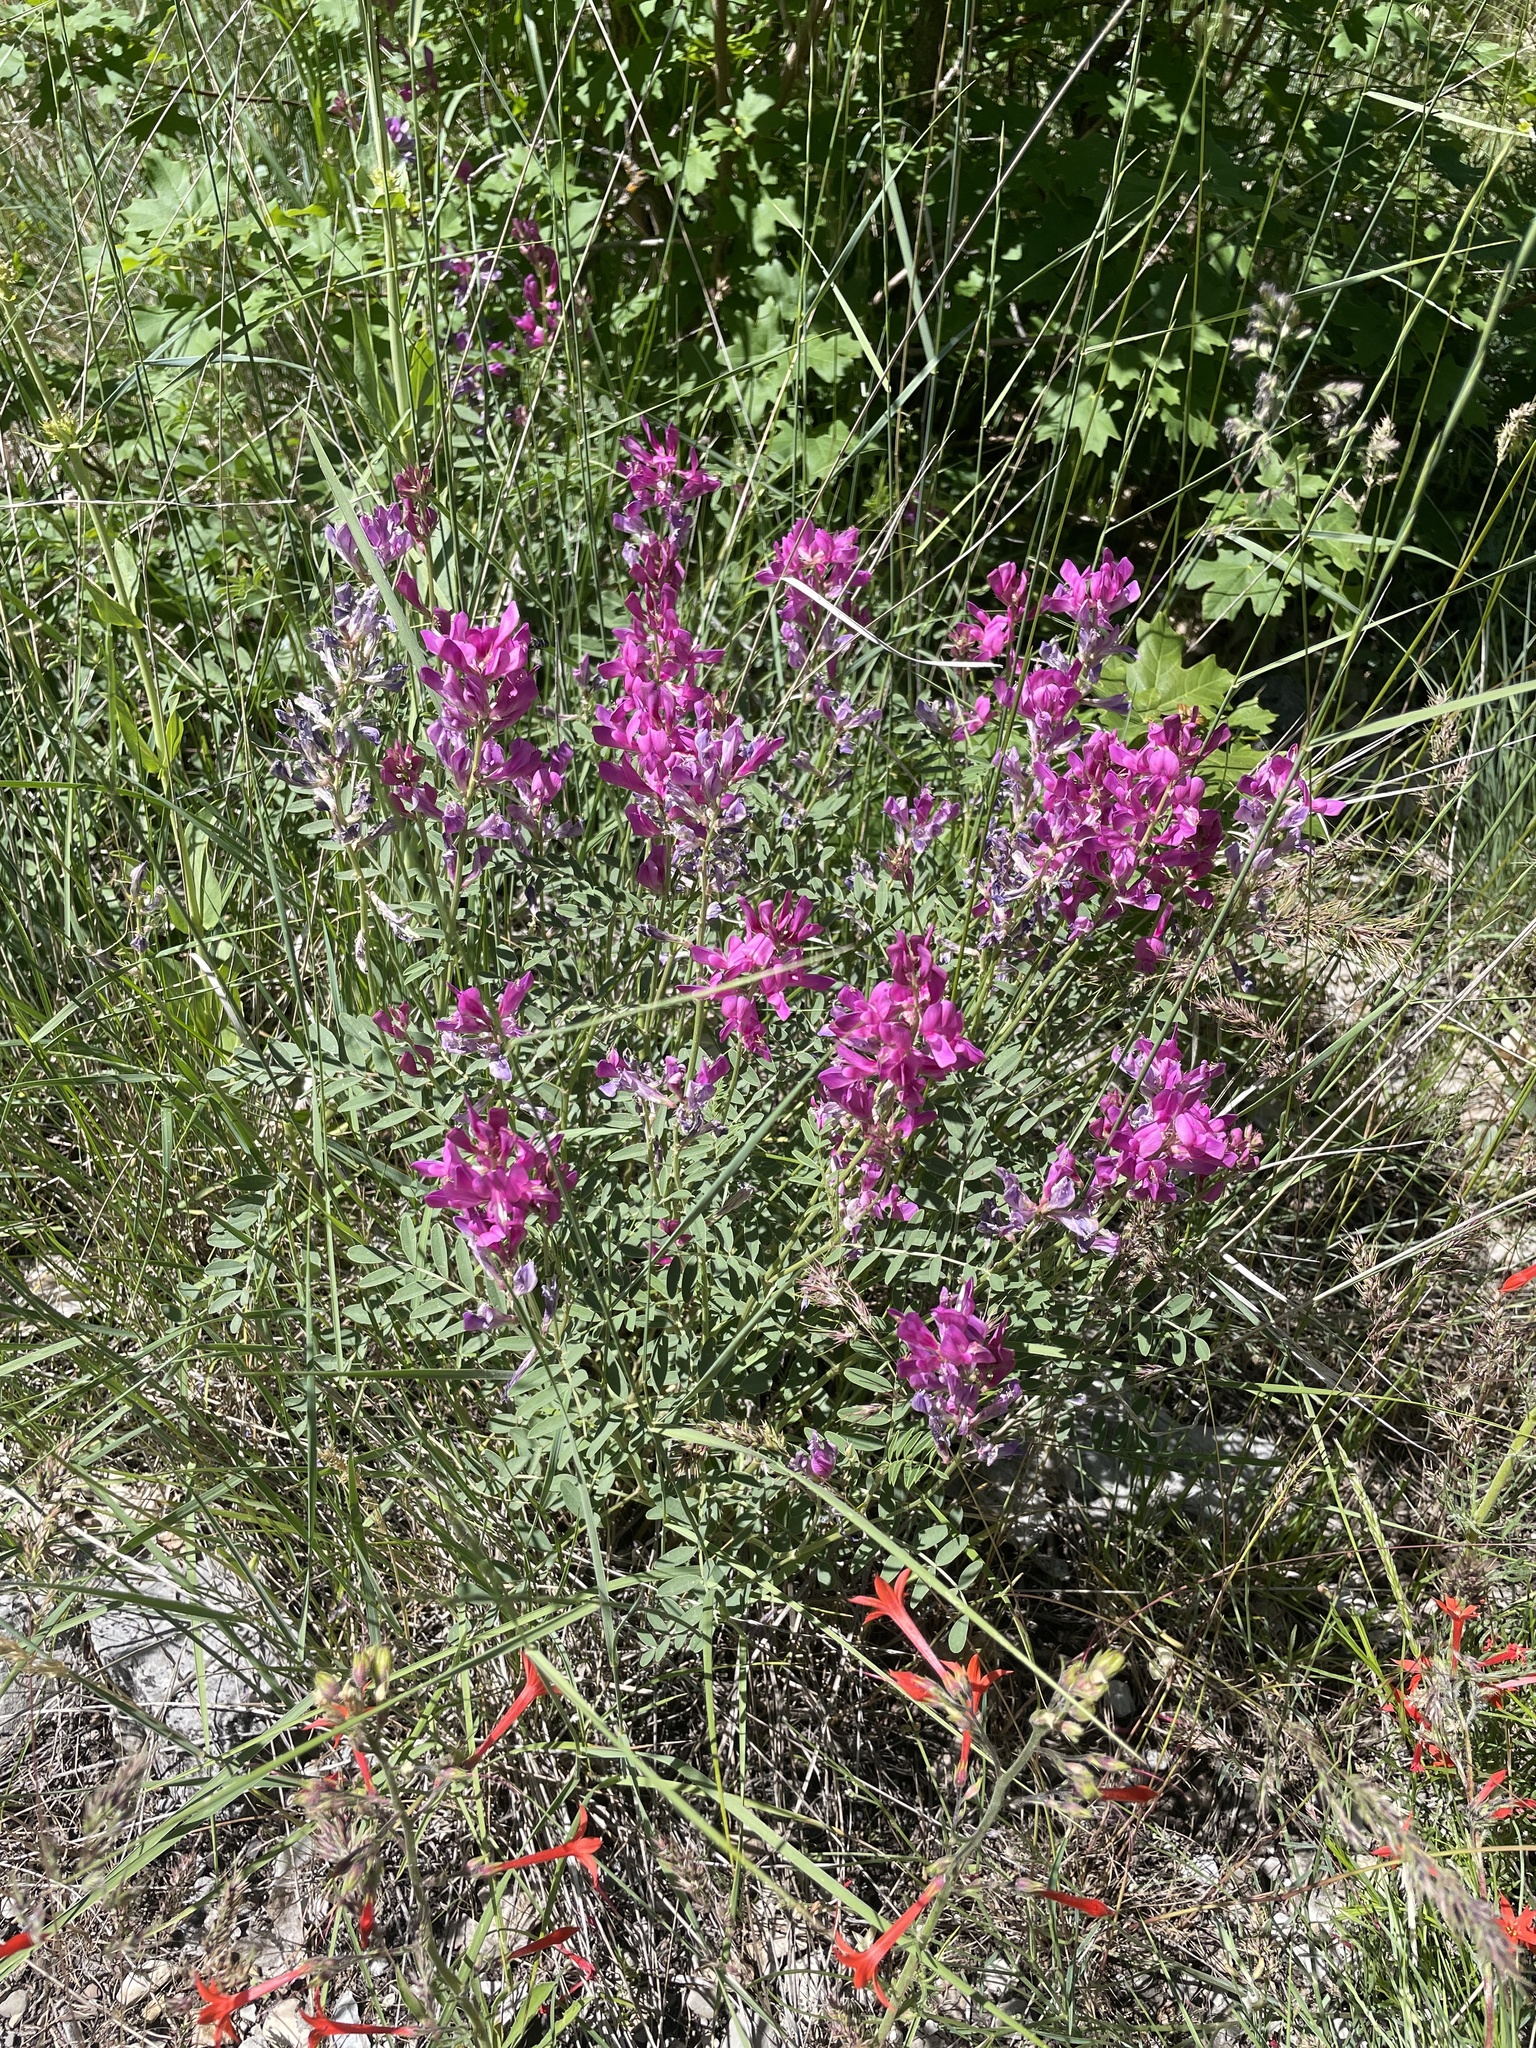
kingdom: Plantae
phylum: Tracheophyta
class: Magnoliopsida
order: Fabales
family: Fabaceae
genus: Hedysarum
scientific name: Hedysarum boreale
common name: Northern sweet-vetch
